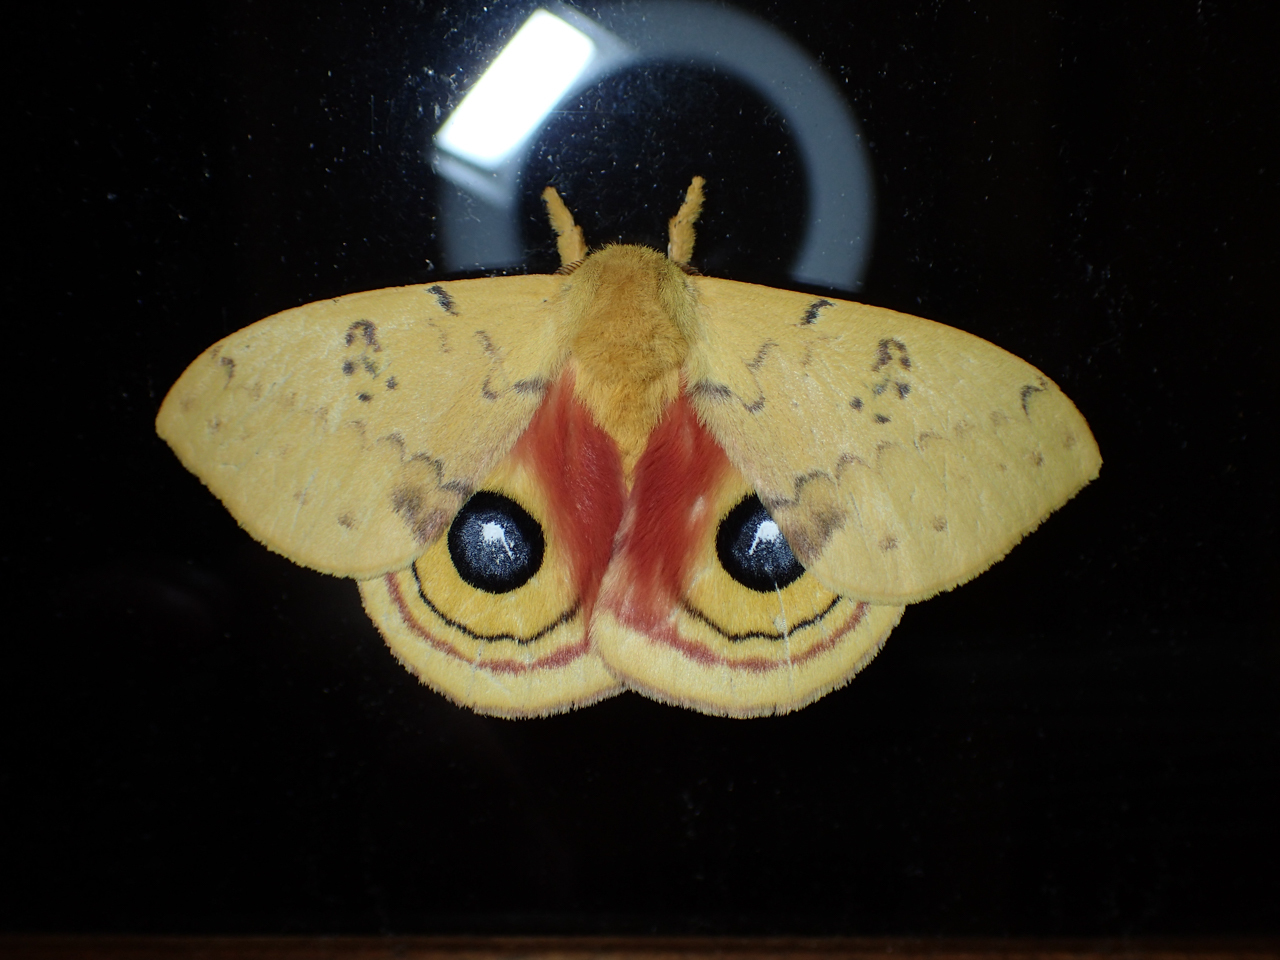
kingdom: Animalia
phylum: Arthropoda
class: Insecta
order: Lepidoptera
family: Saturniidae
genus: Automeris
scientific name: Automeris io
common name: Io moth
